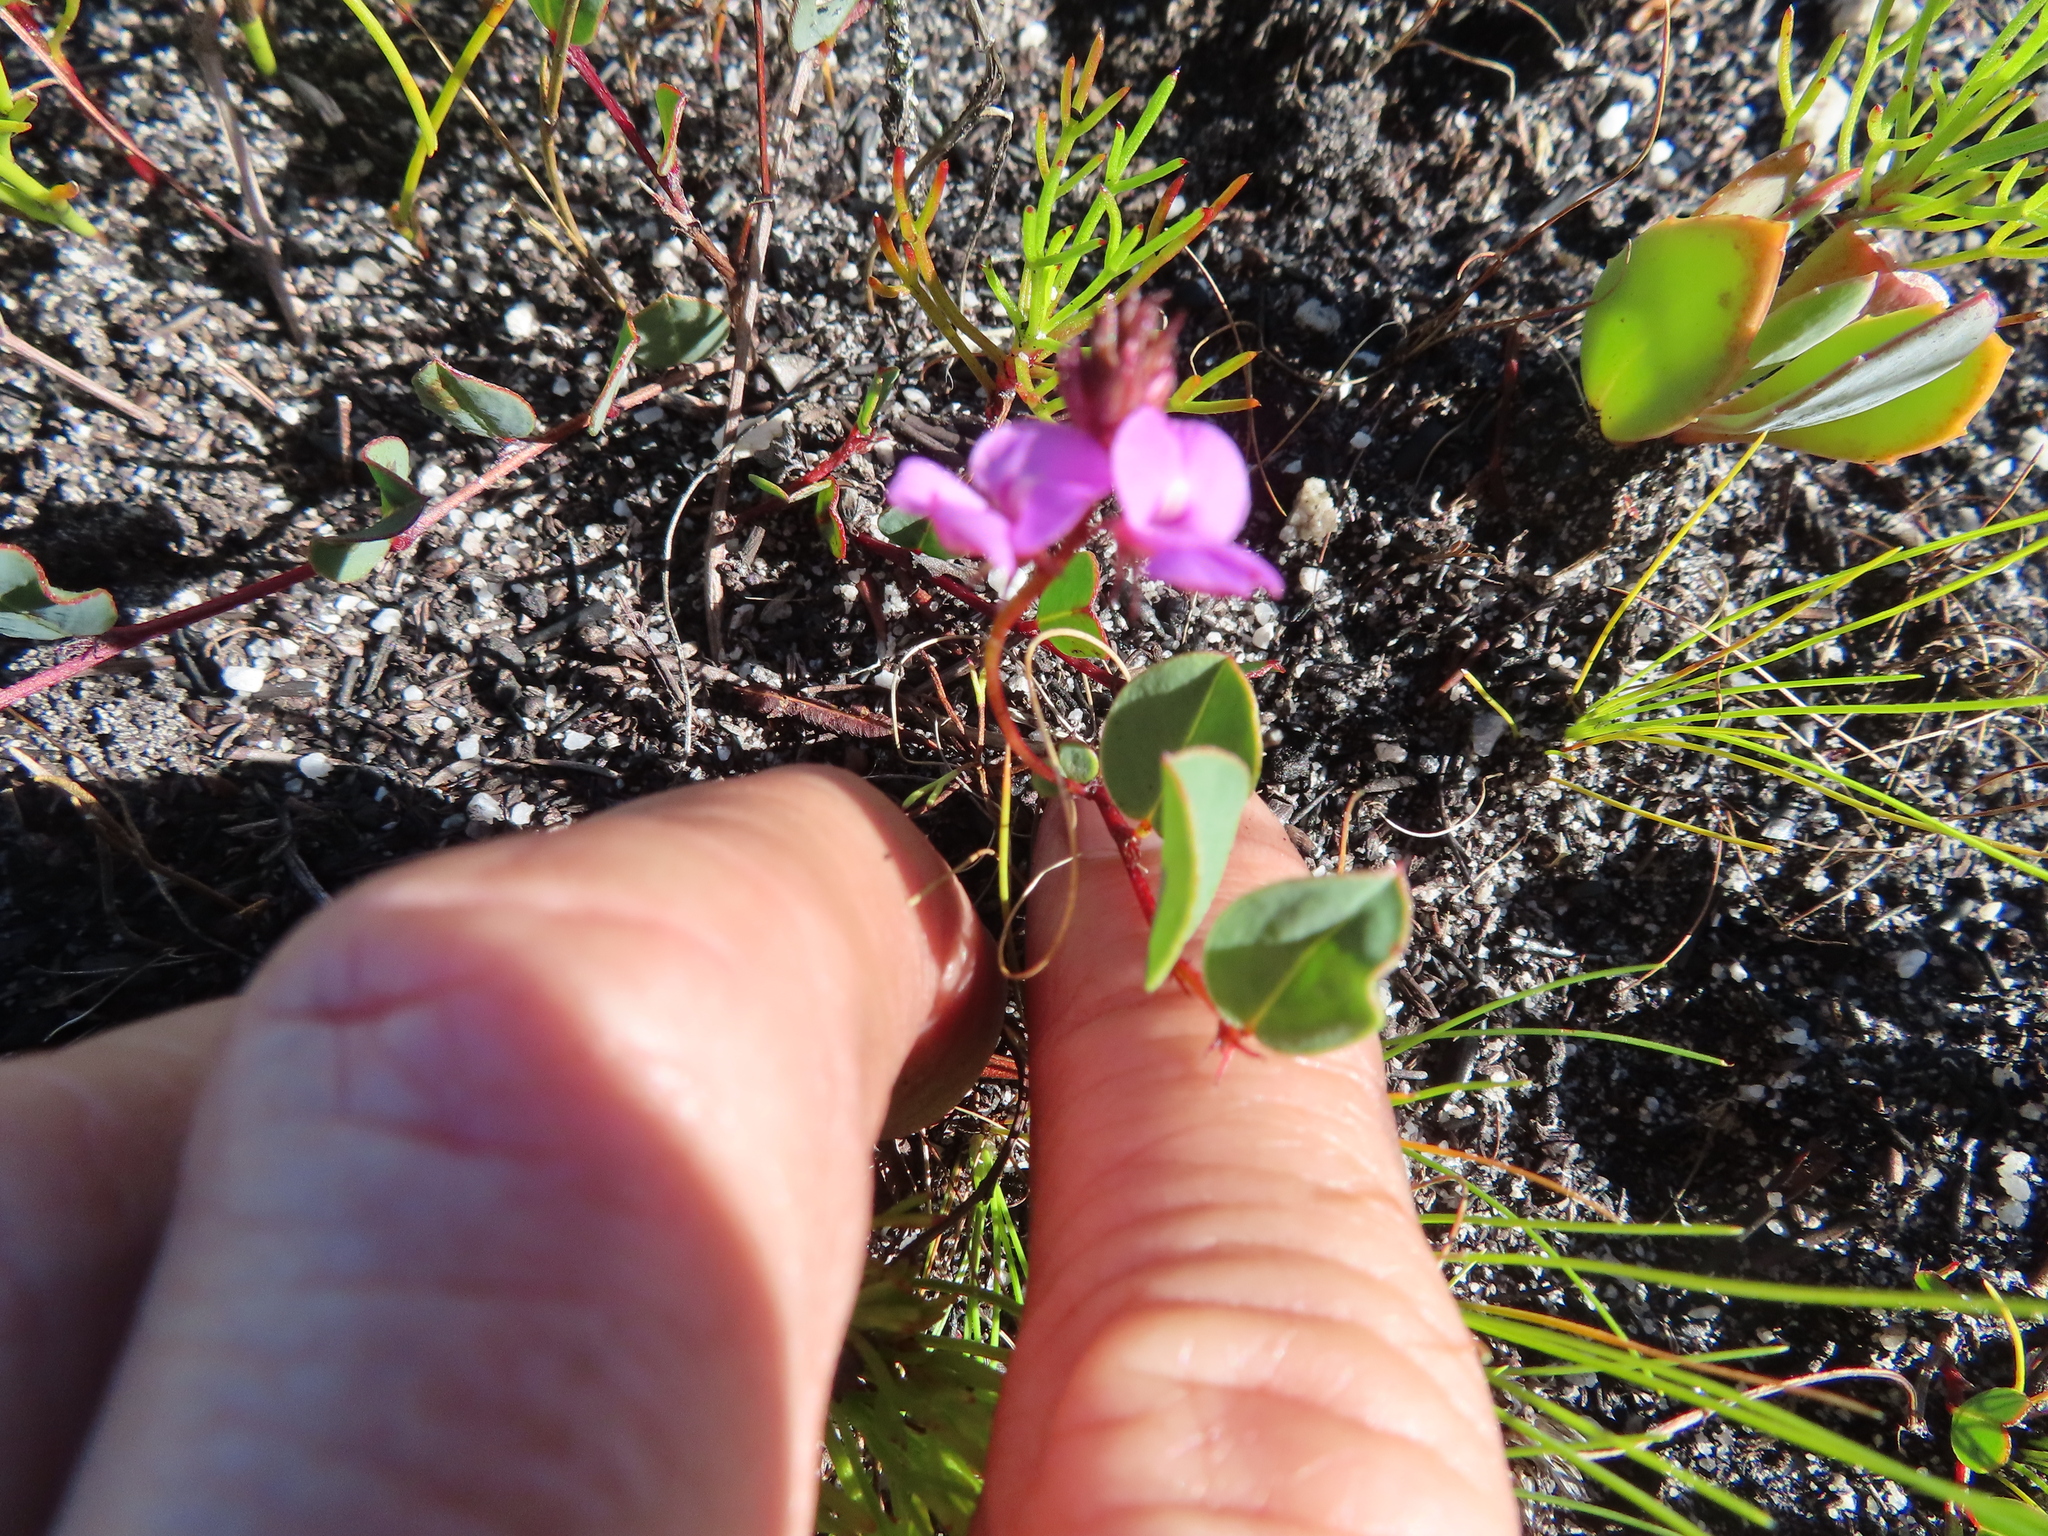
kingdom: Plantae
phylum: Tracheophyta
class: Magnoliopsida
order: Fabales
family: Fabaceae
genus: Indigofera
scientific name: Indigofera ovata
